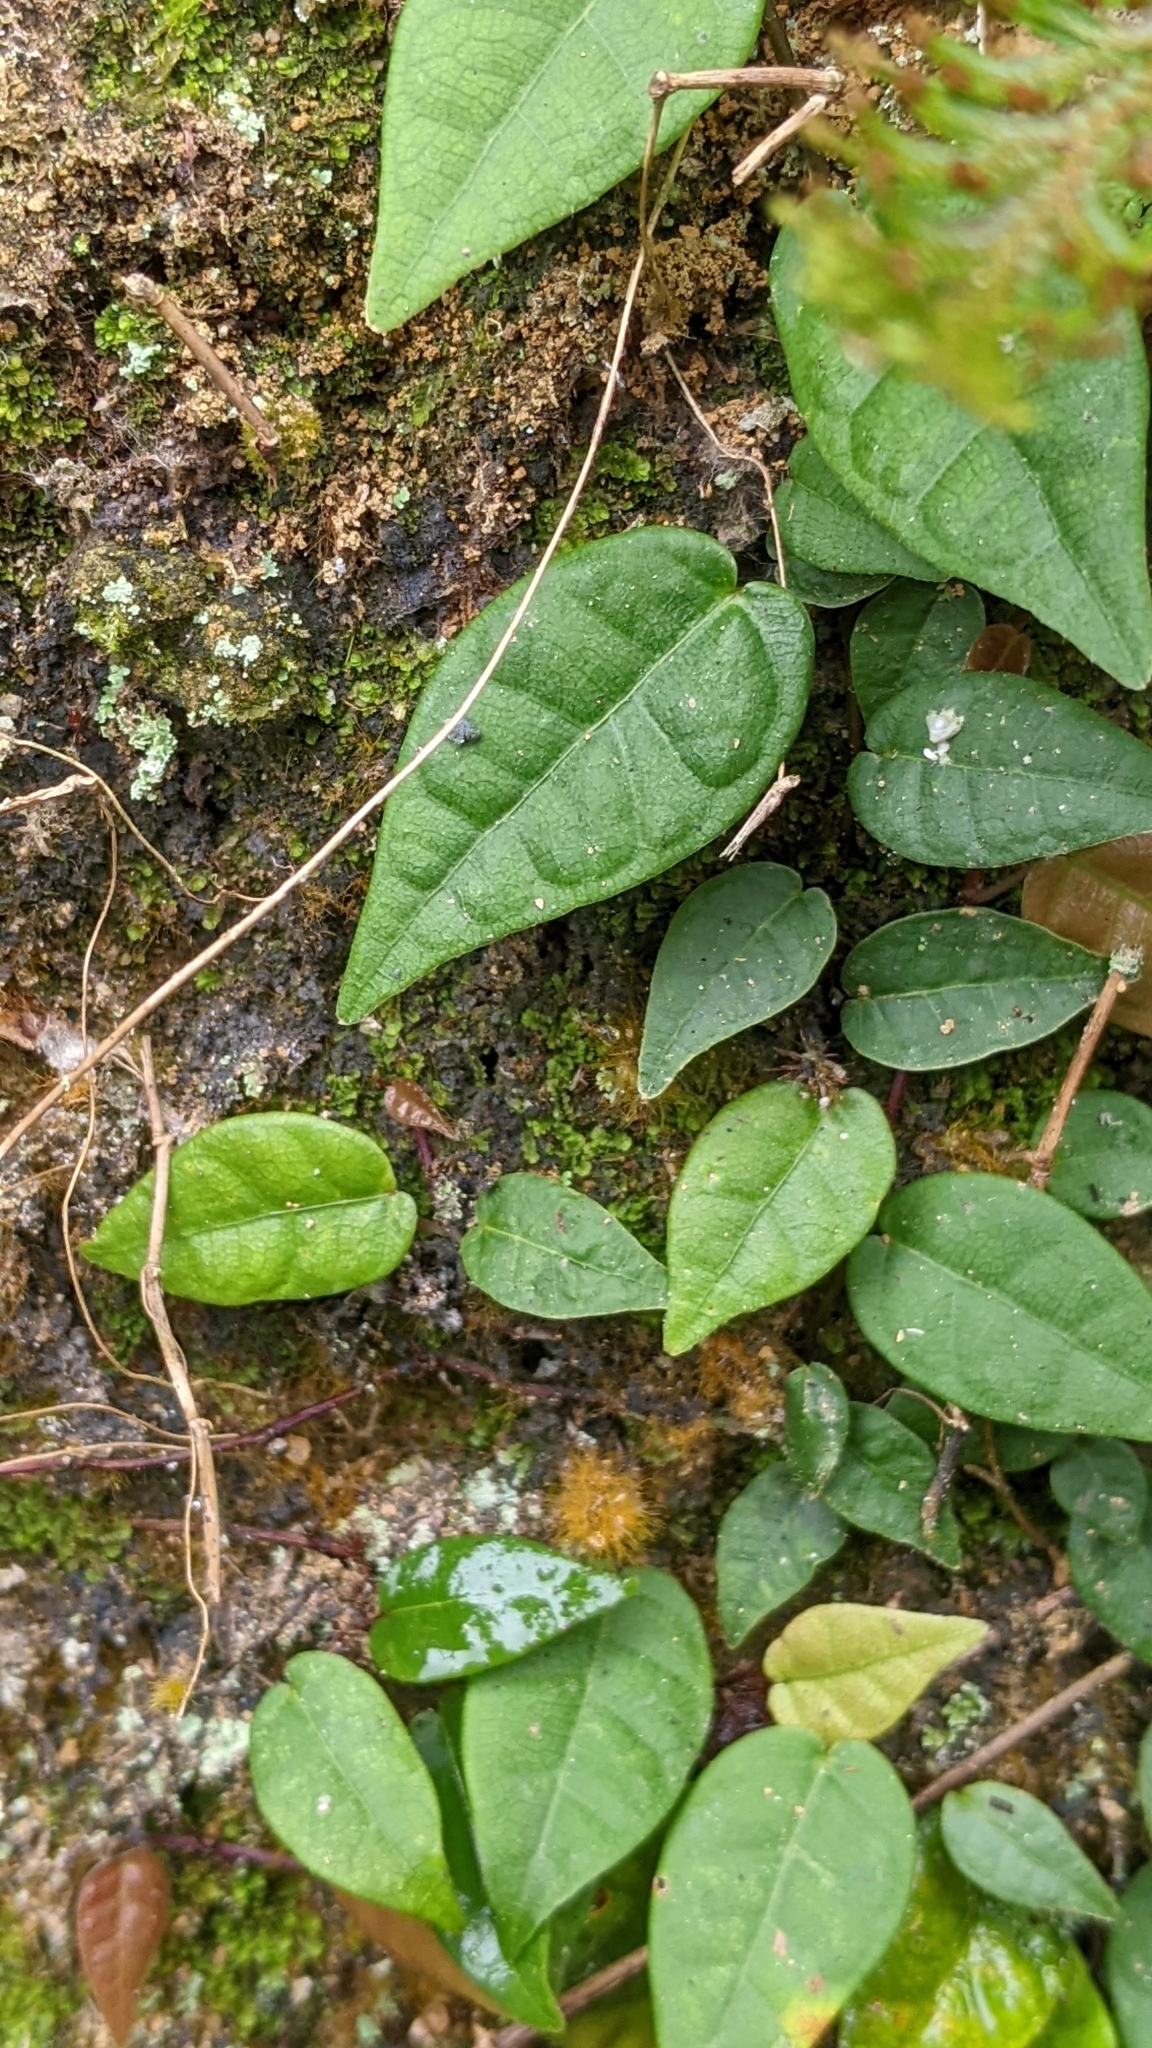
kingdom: Plantae
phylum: Tracheophyta
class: Magnoliopsida
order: Rosales
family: Moraceae
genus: Ficus
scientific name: Ficus sarmentosa
